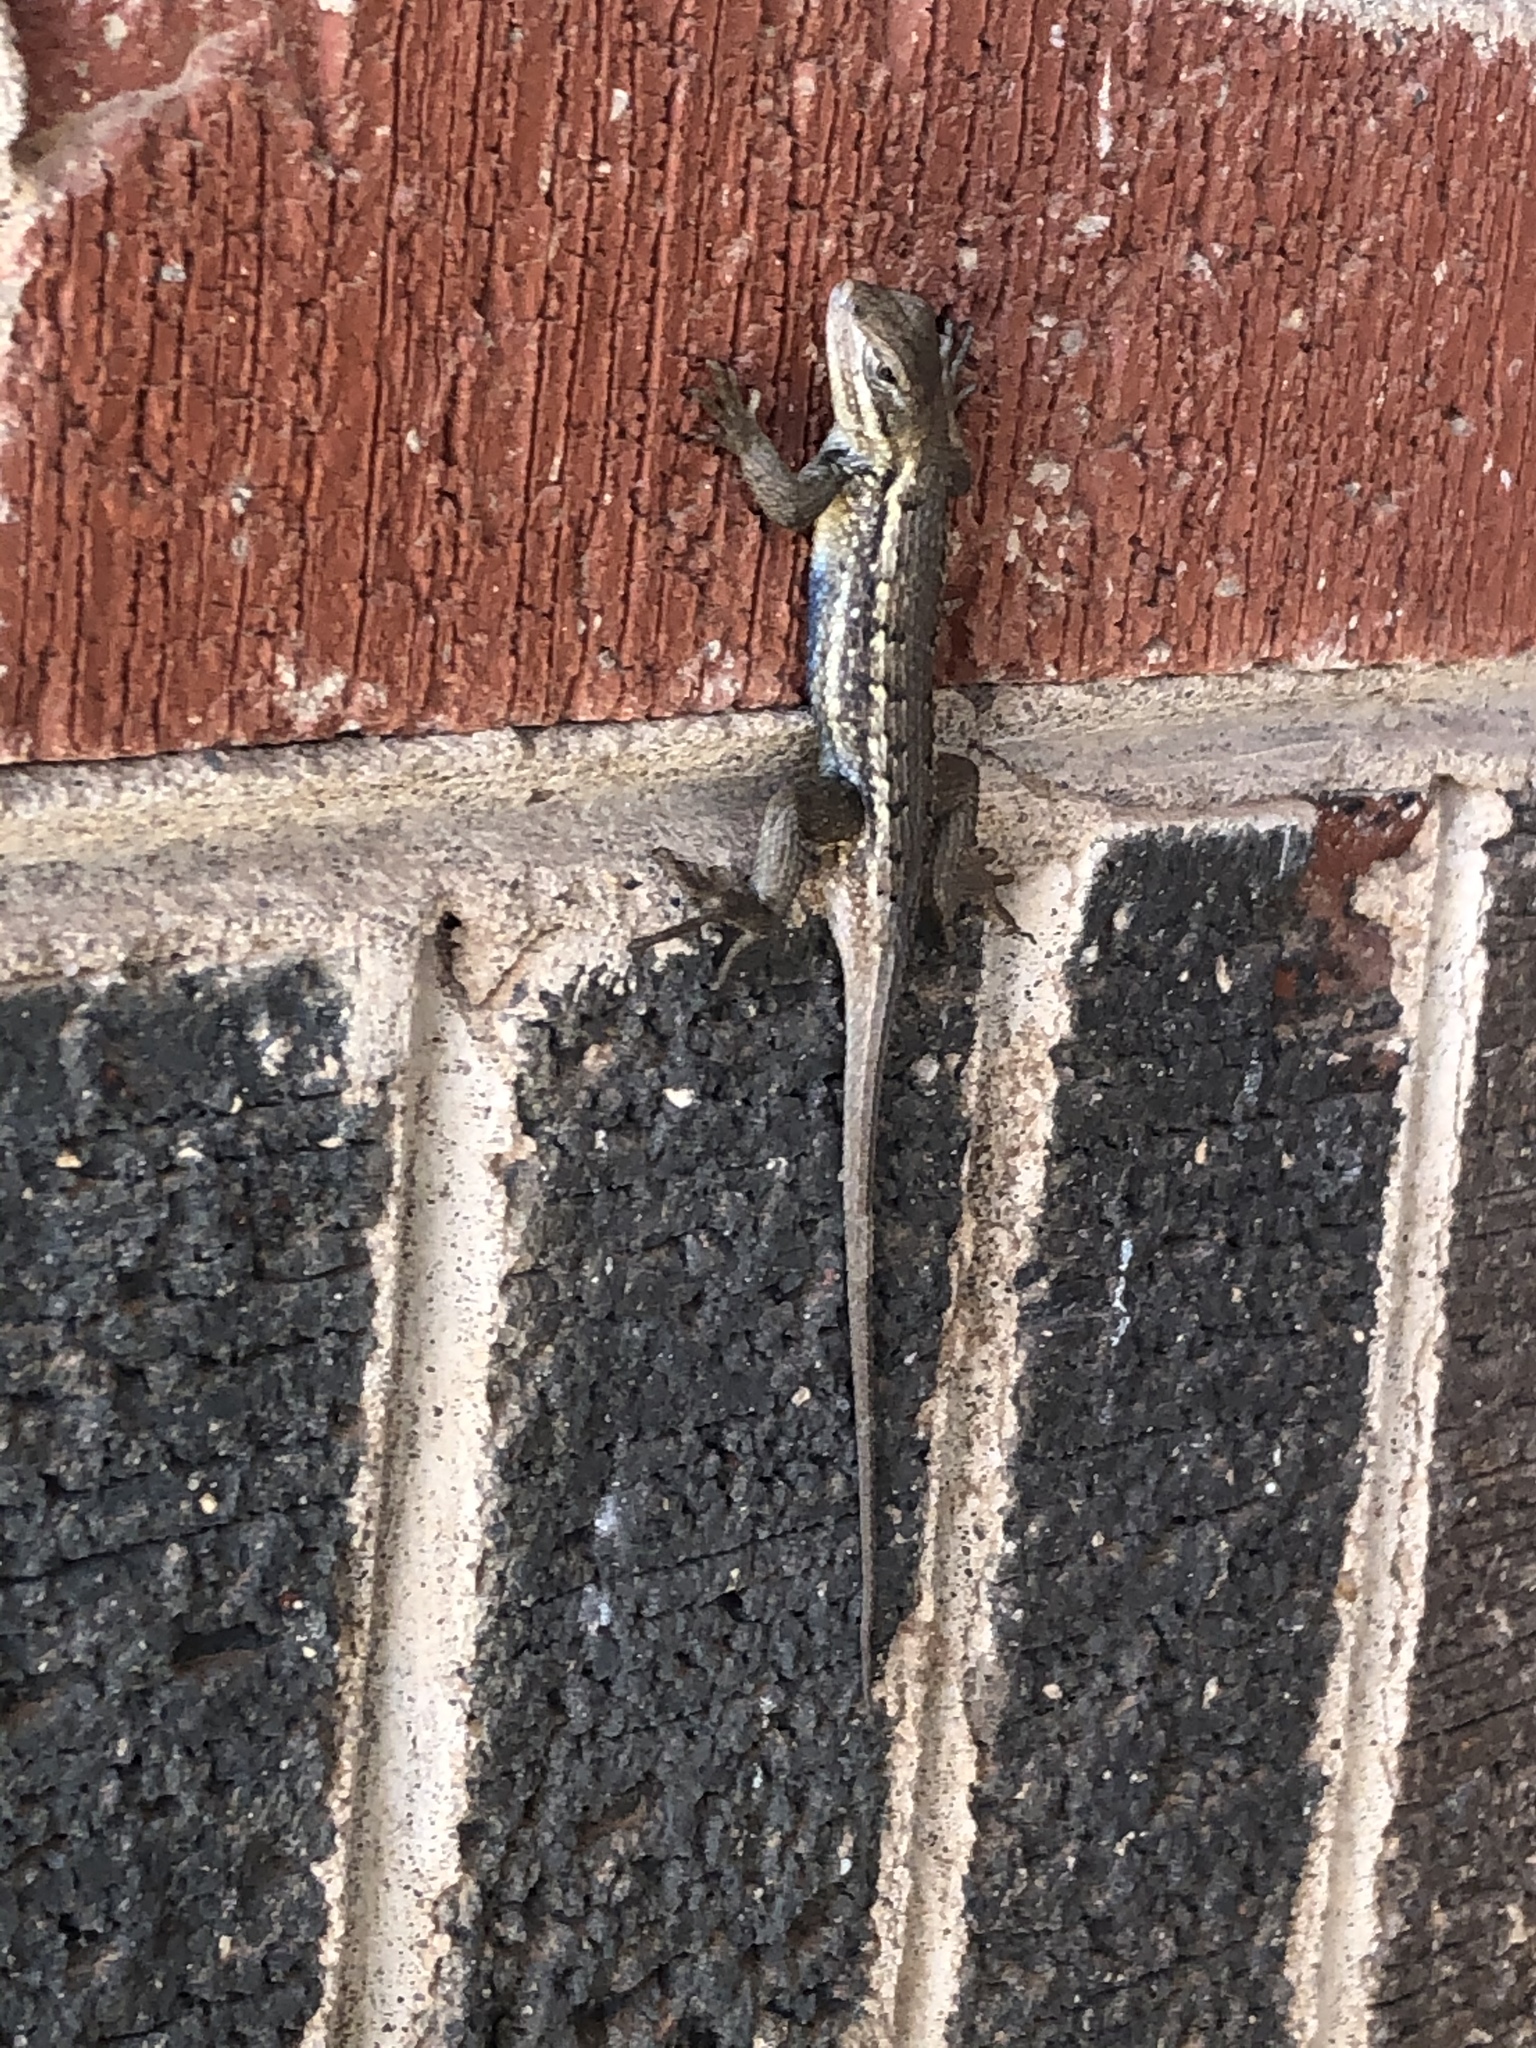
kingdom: Animalia
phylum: Chordata
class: Squamata
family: Phrynosomatidae
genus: Sceloporus
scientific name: Sceloporus consobrinus
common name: Southern prairie lizard
